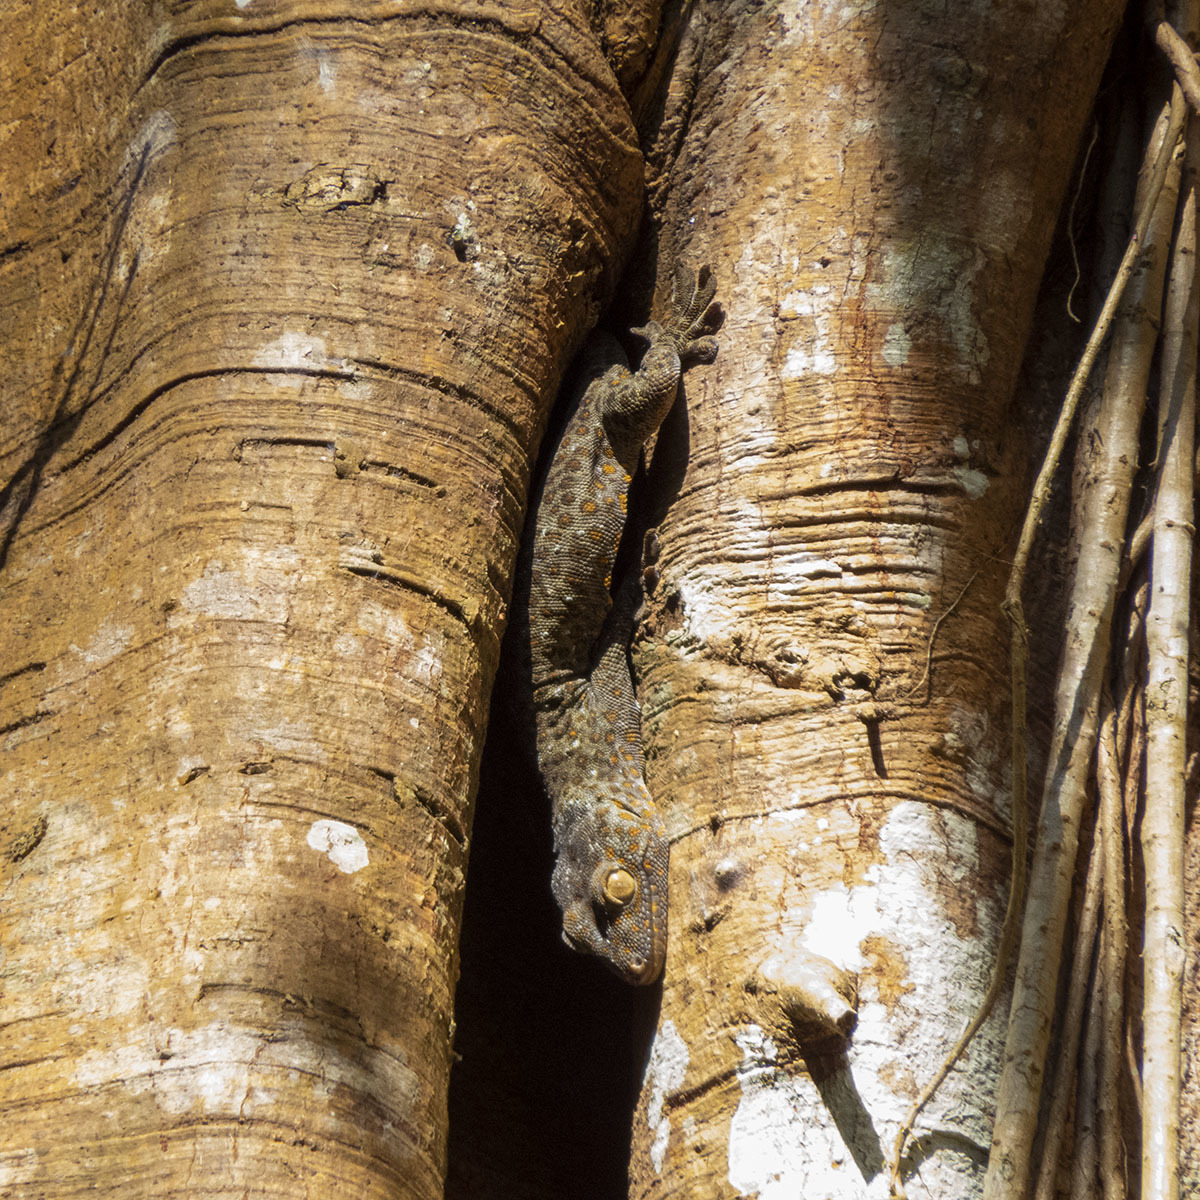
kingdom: Animalia
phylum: Chordata
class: Squamata
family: Gekkonidae
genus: Gekko
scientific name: Gekko gecko
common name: Tokay gecko
